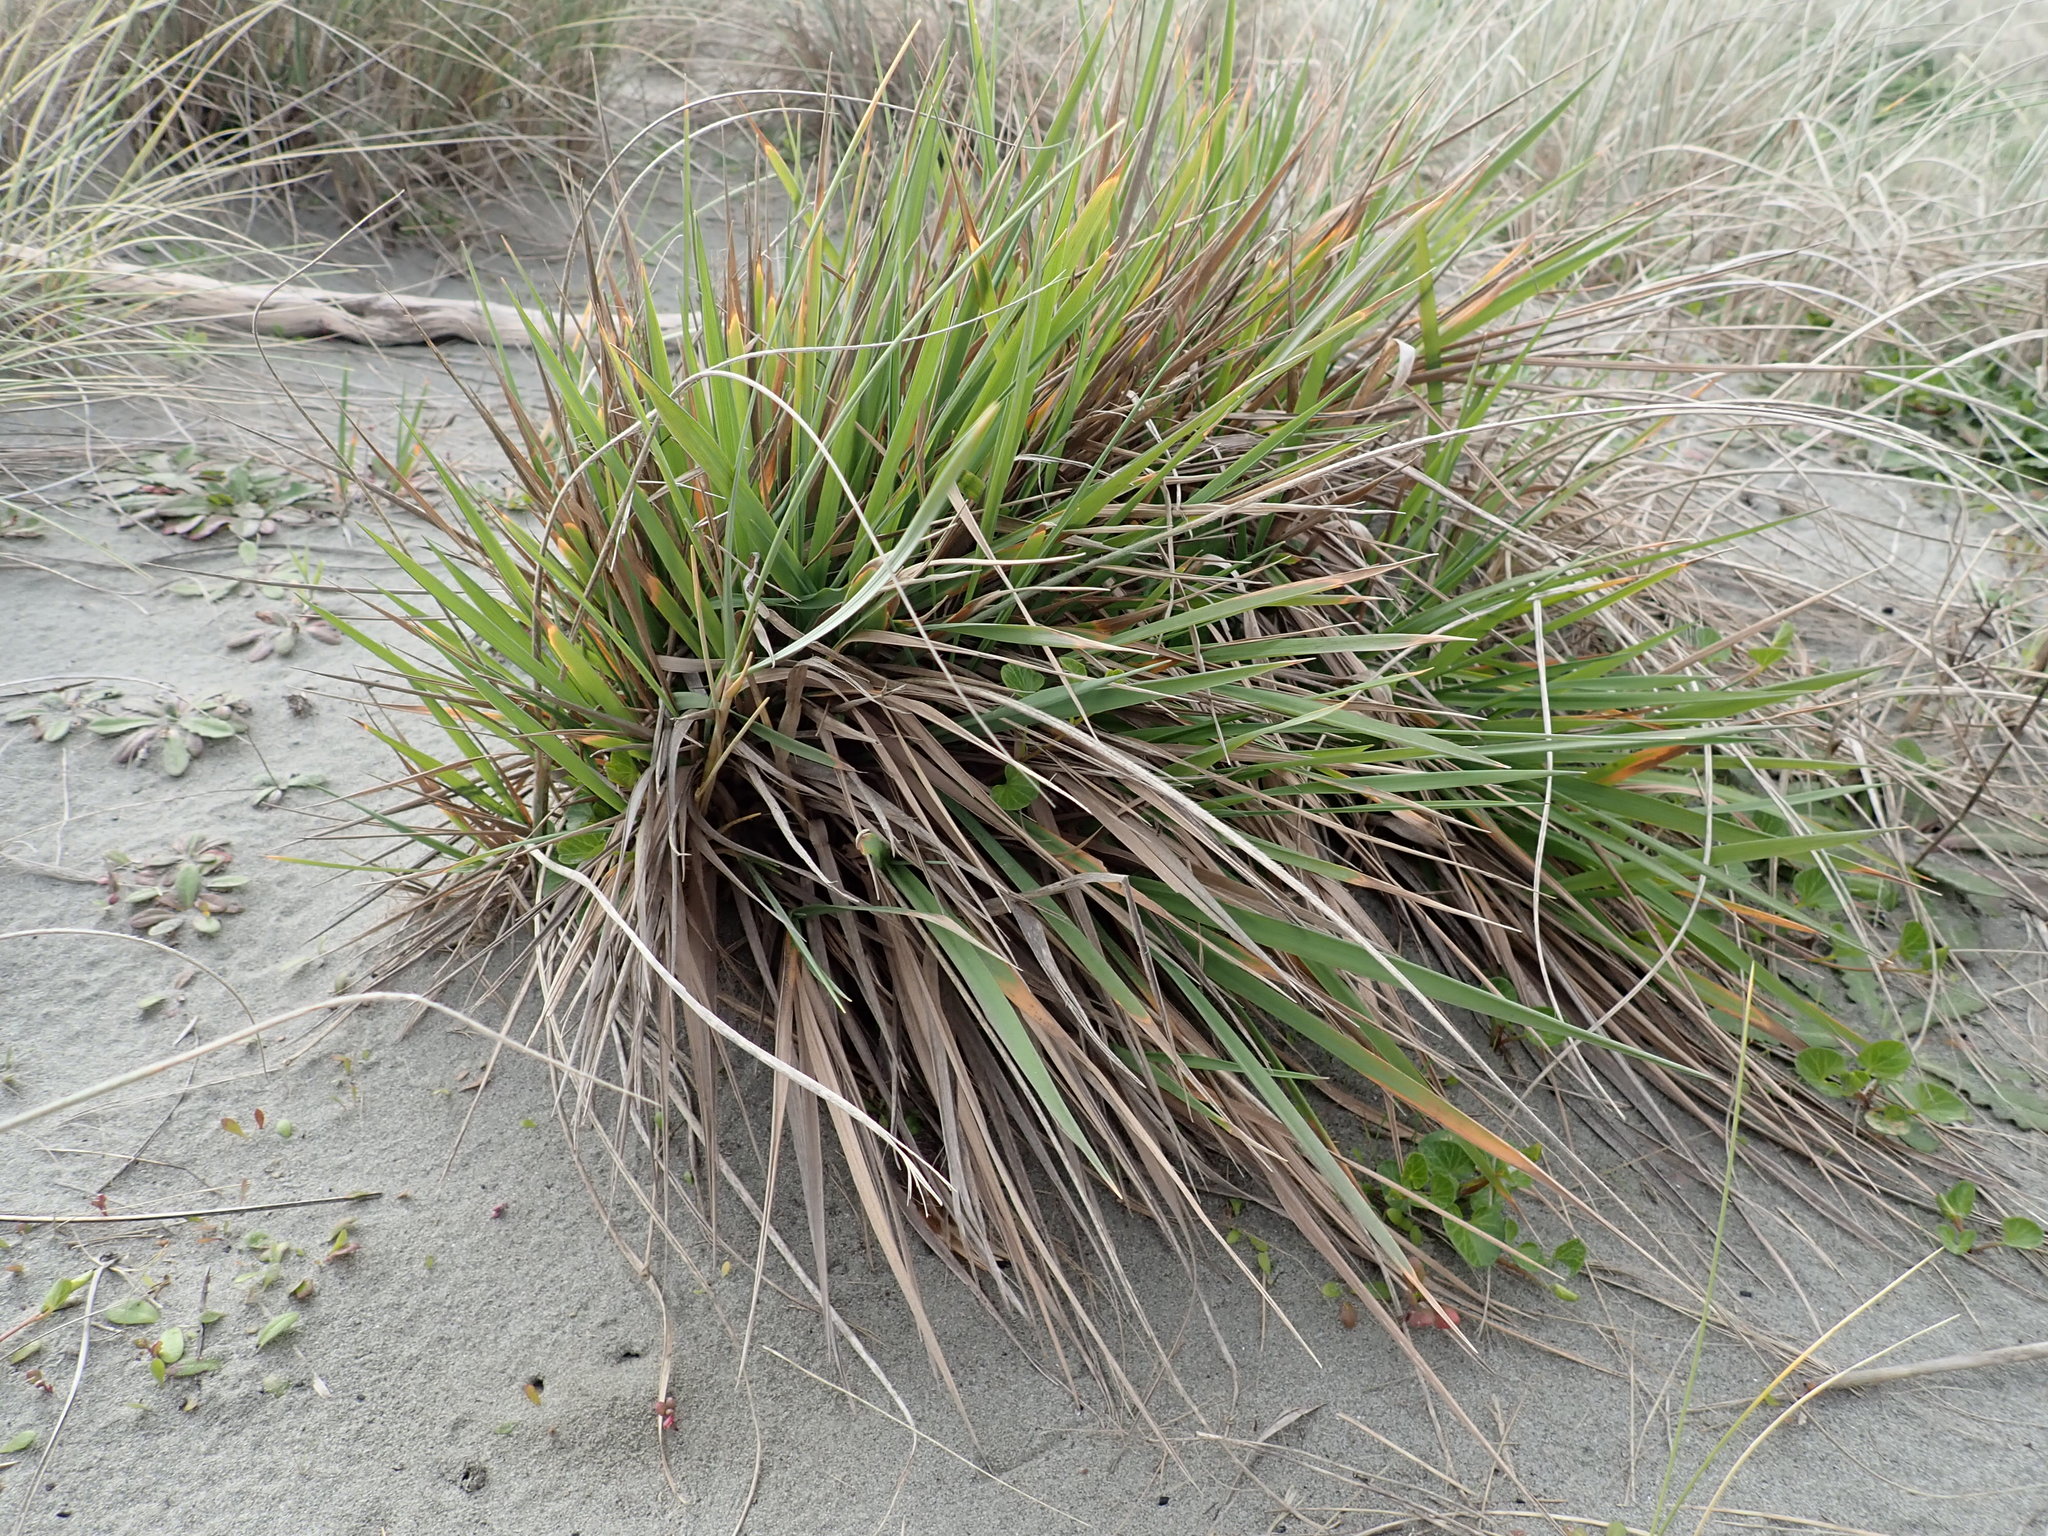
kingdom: Plantae
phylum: Tracheophyta
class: Liliopsida
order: Poales
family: Poaceae
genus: Lachnagrostis
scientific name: Lachnagrostis billardierei
